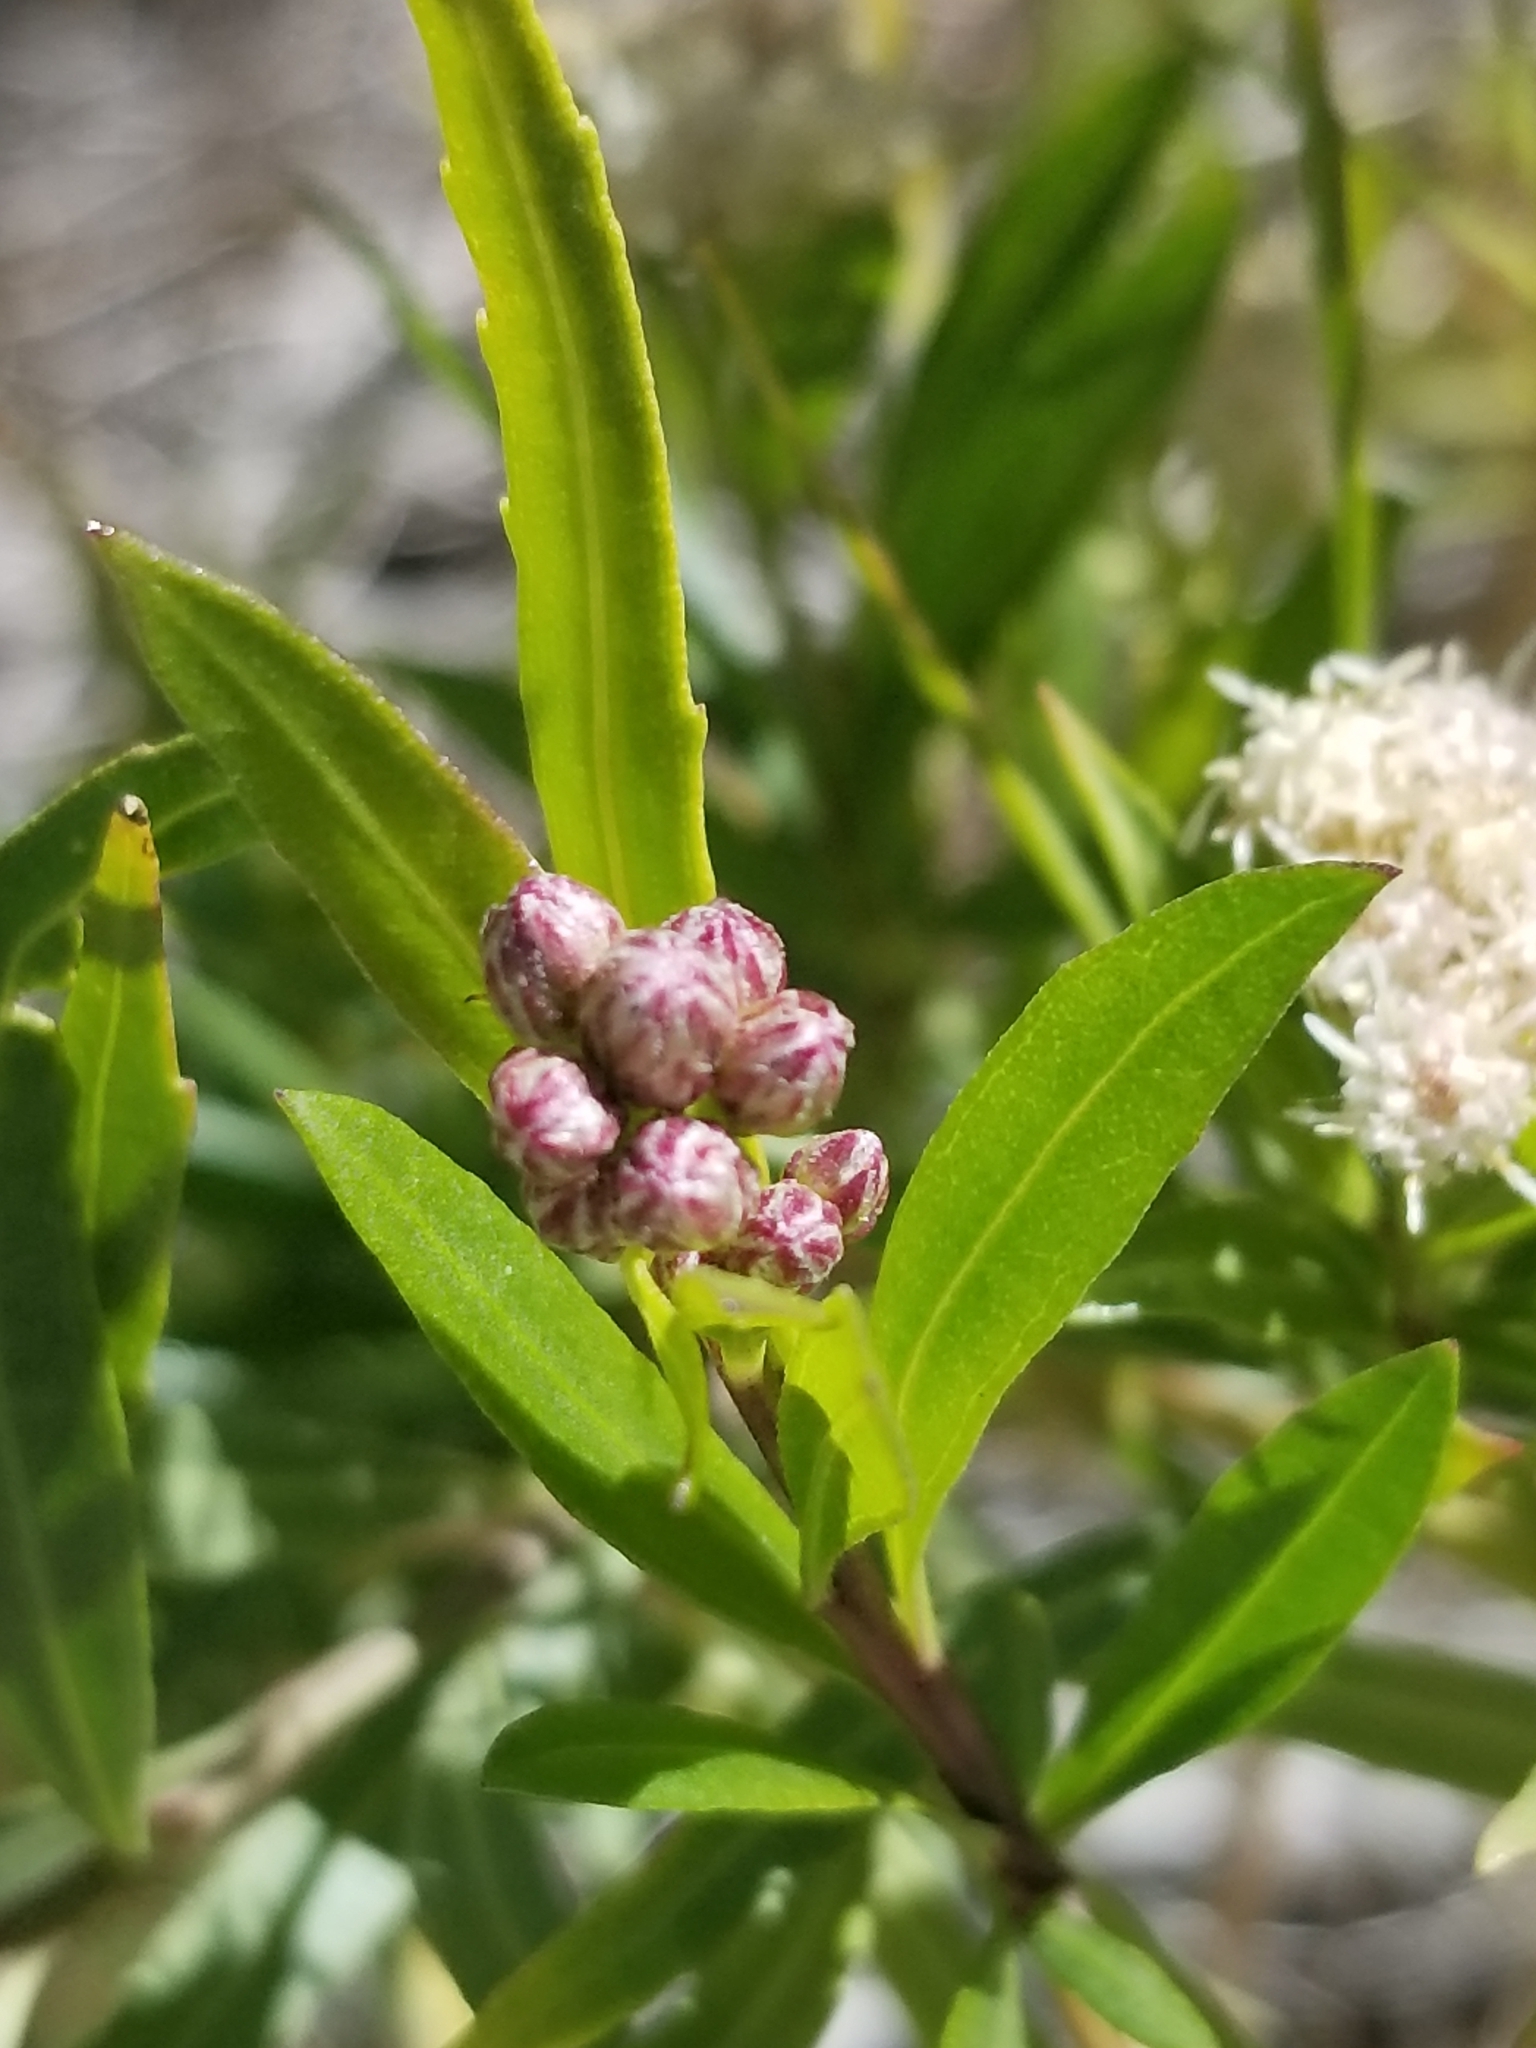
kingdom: Plantae
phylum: Tracheophyta
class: Magnoliopsida
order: Asterales
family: Asteraceae
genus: Baccharis
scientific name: Baccharis salicifolia
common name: Sticky baccharis
